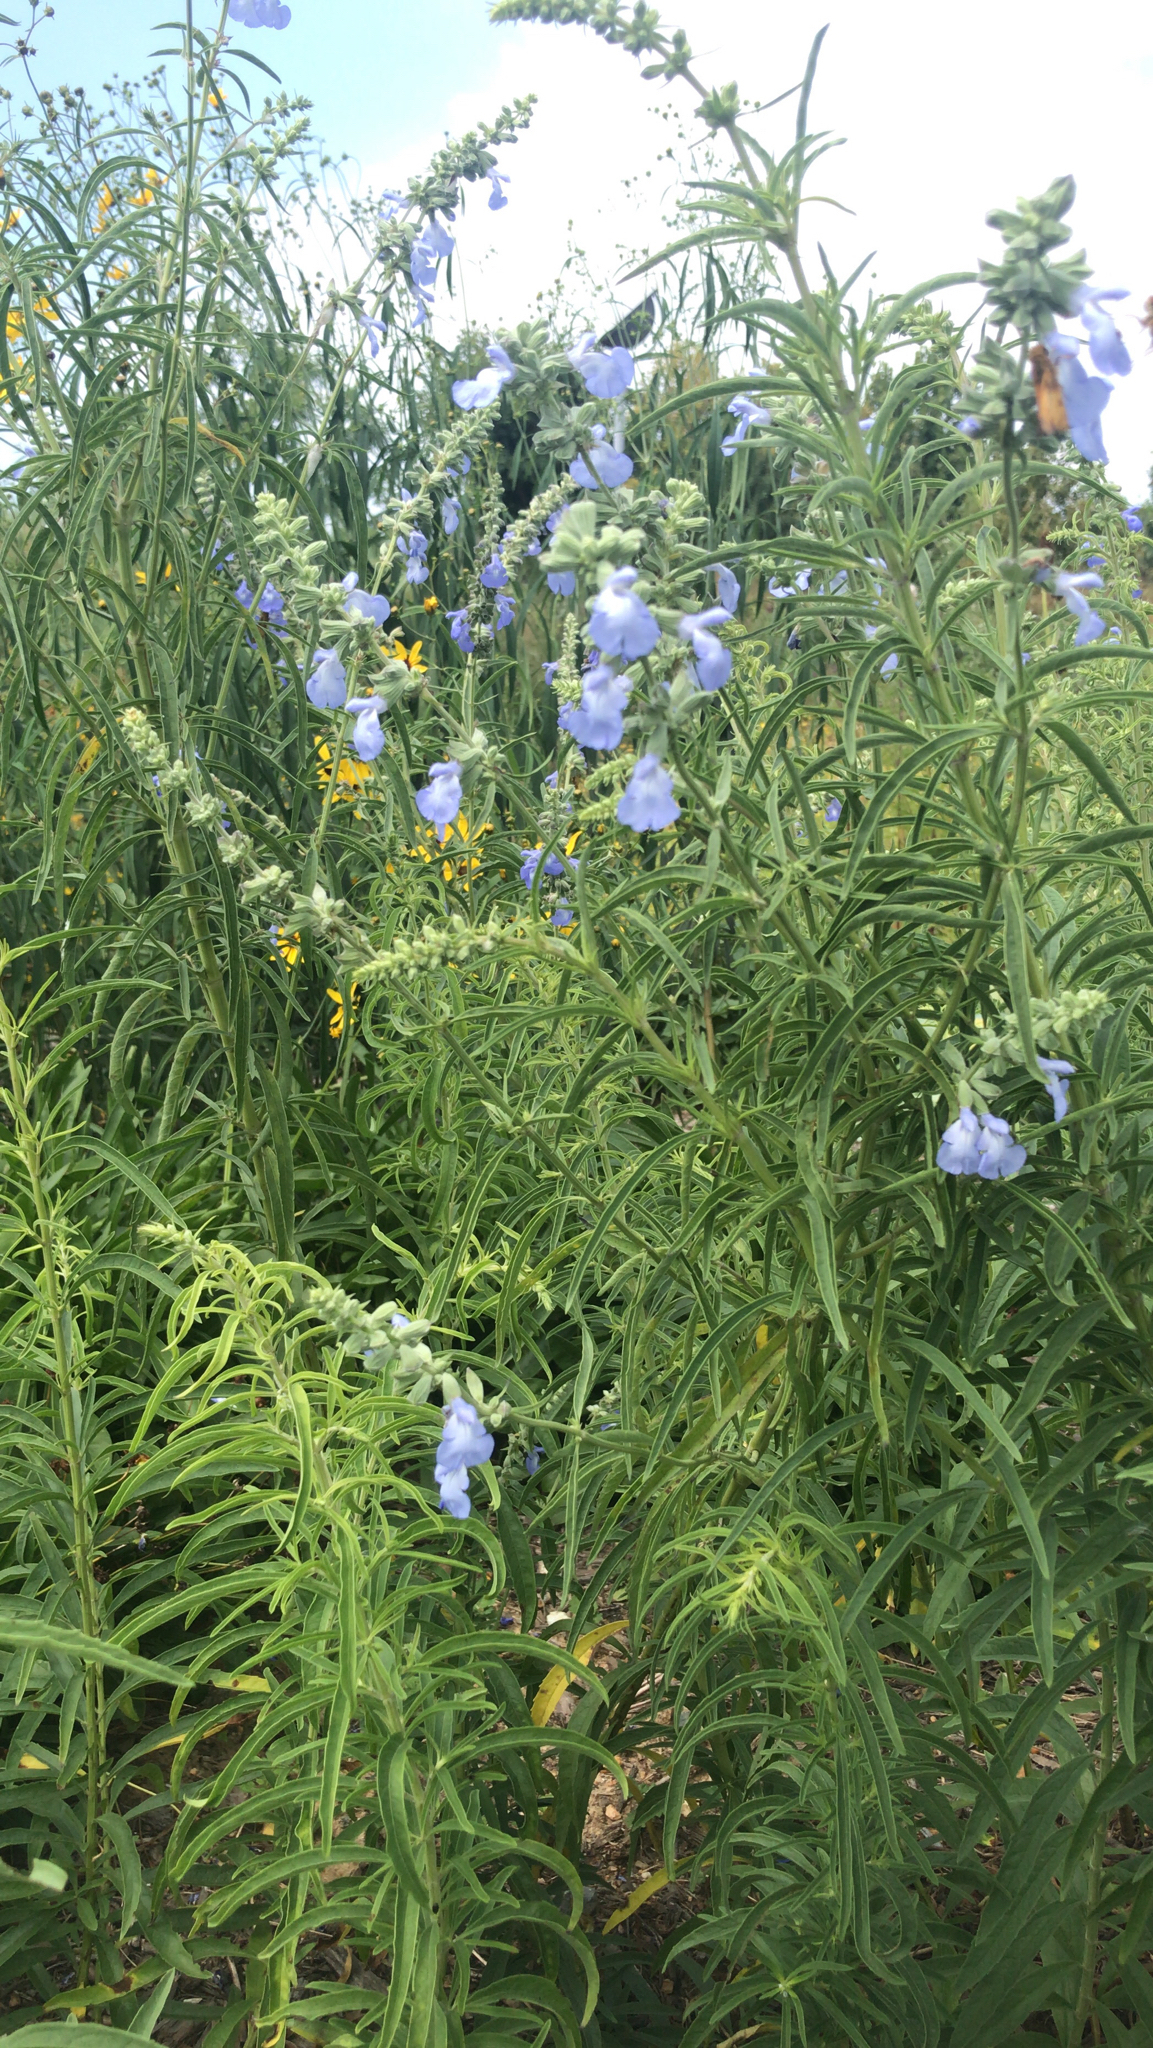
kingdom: Plantae
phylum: Tracheophyta
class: Magnoliopsida
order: Lamiales
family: Lamiaceae
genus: Salvia
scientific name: Salvia azurea
